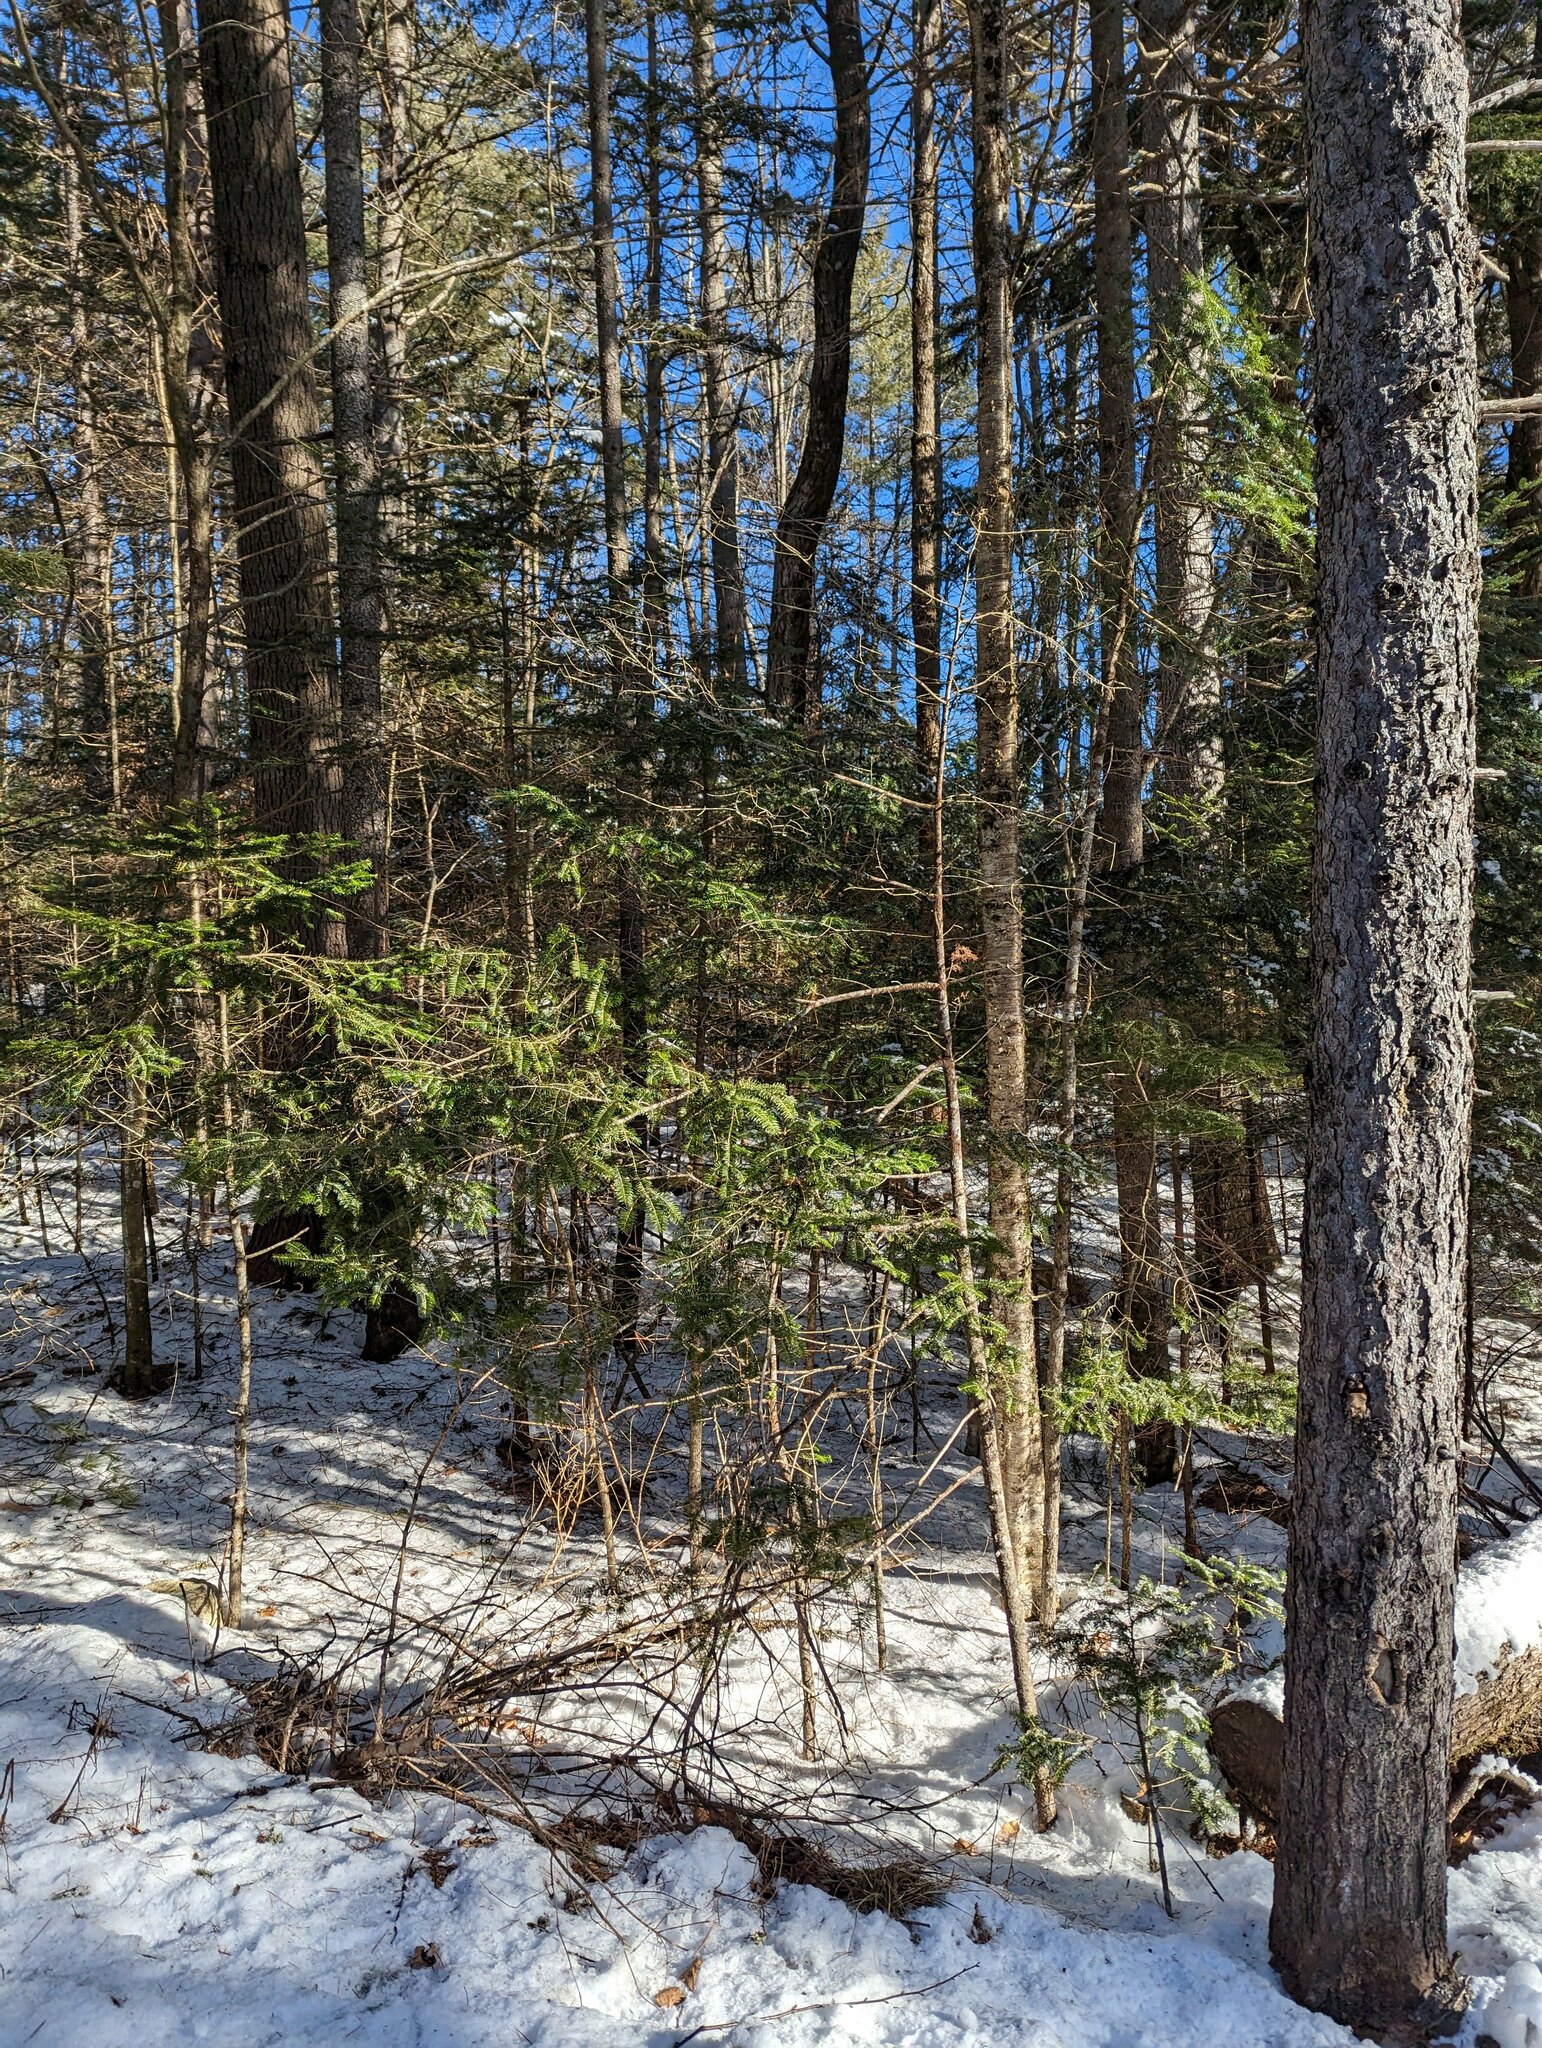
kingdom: Plantae
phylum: Tracheophyta
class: Pinopsida
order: Pinales
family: Pinaceae
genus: Abies
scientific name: Abies balsamea
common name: Balsam fir
